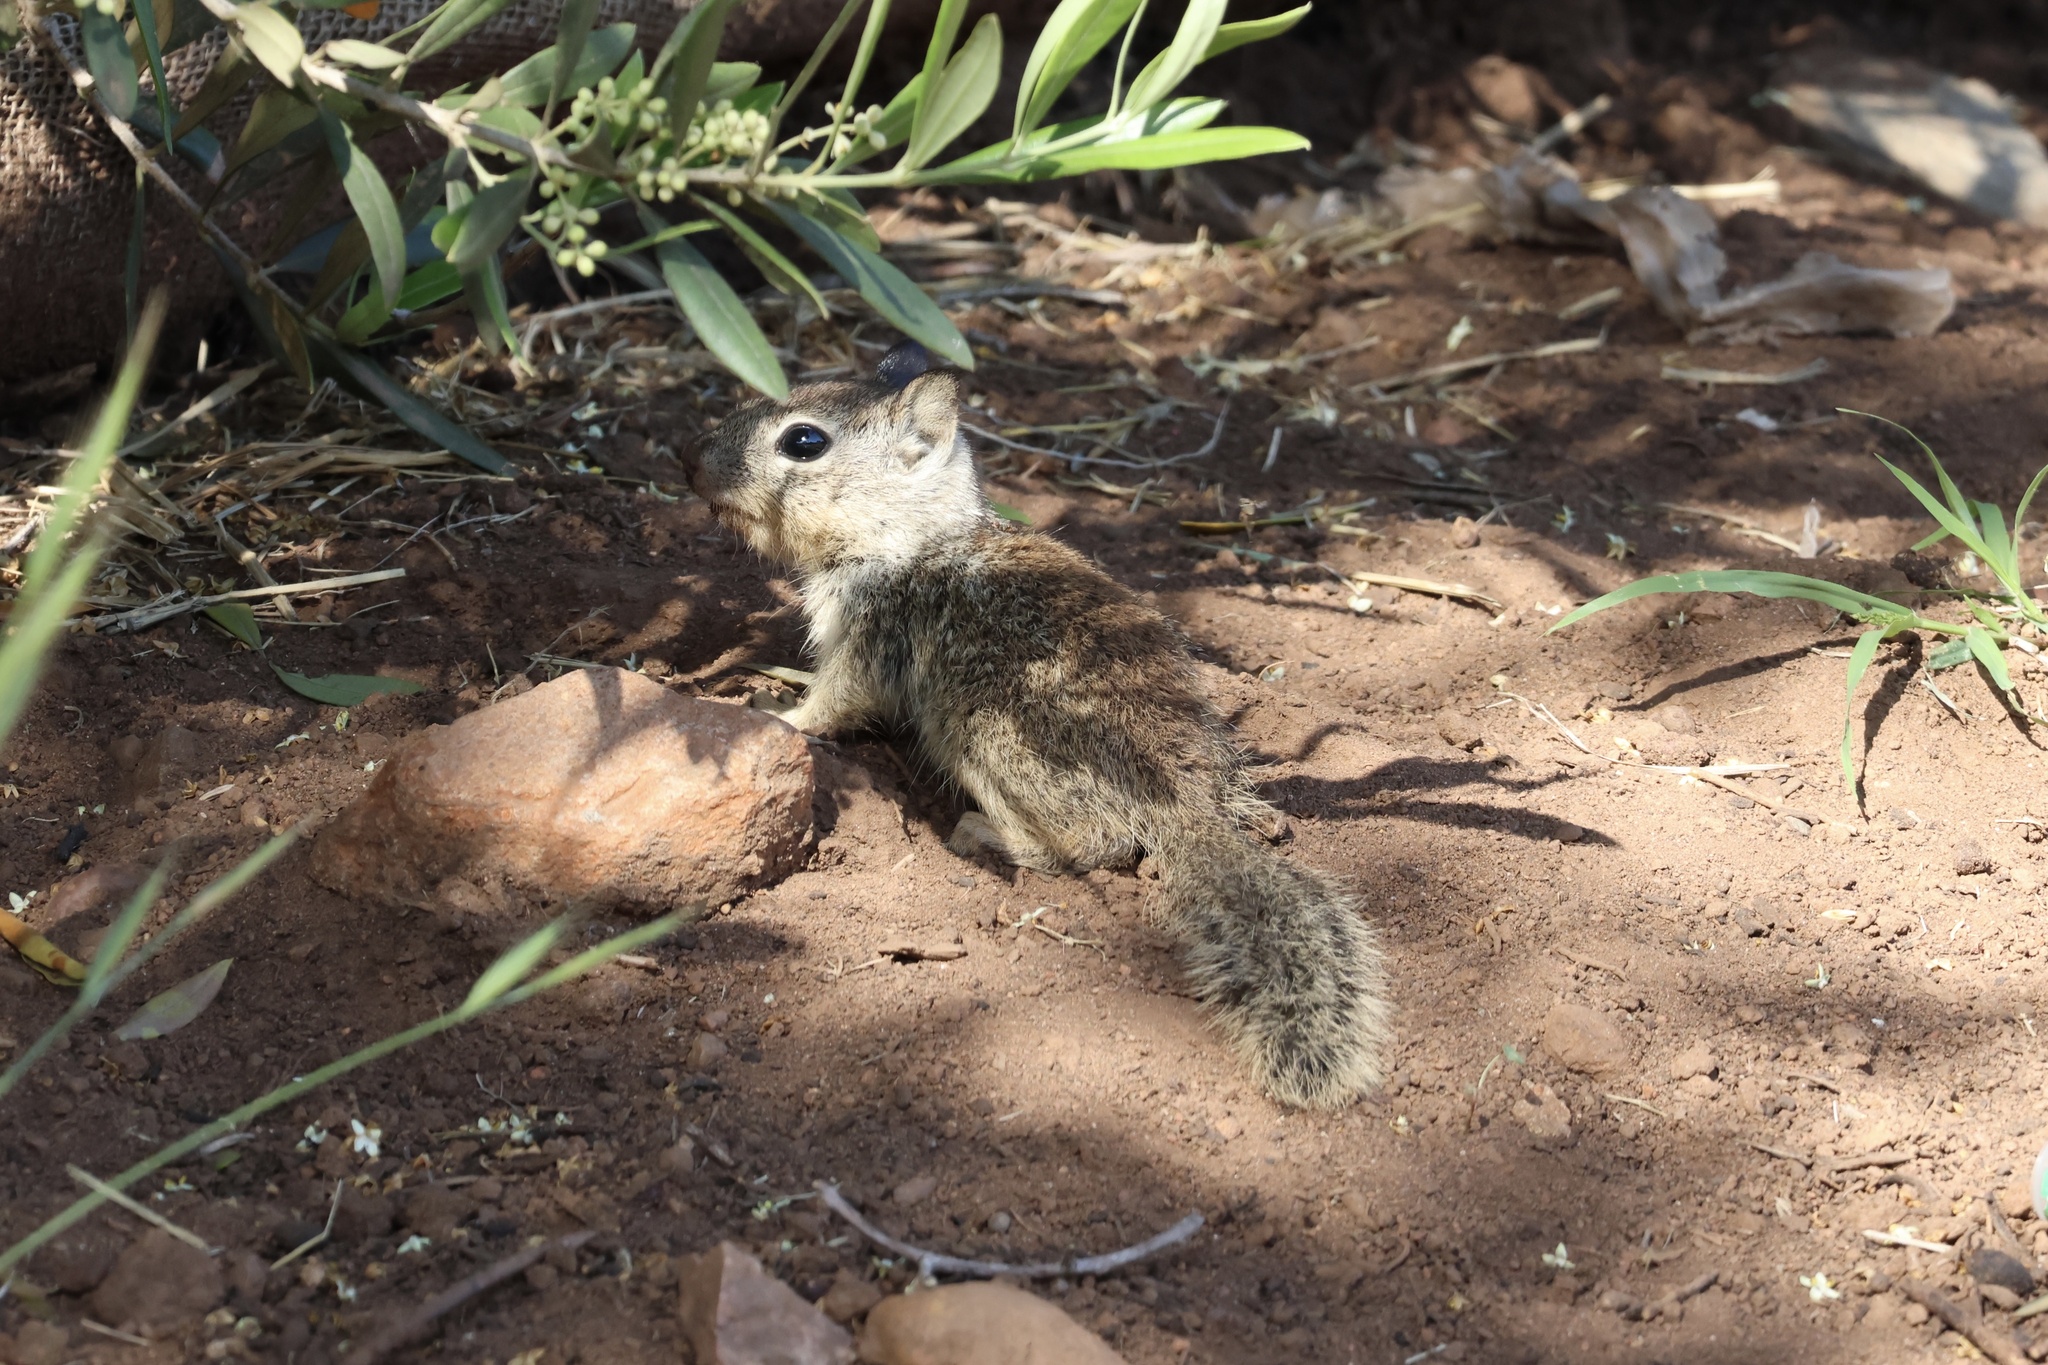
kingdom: Animalia
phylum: Chordata
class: Mammalia
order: Rodentia
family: Sciuridae
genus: Otospermophilus
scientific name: Otospermophilus beecheyi
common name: California ground squirrel
